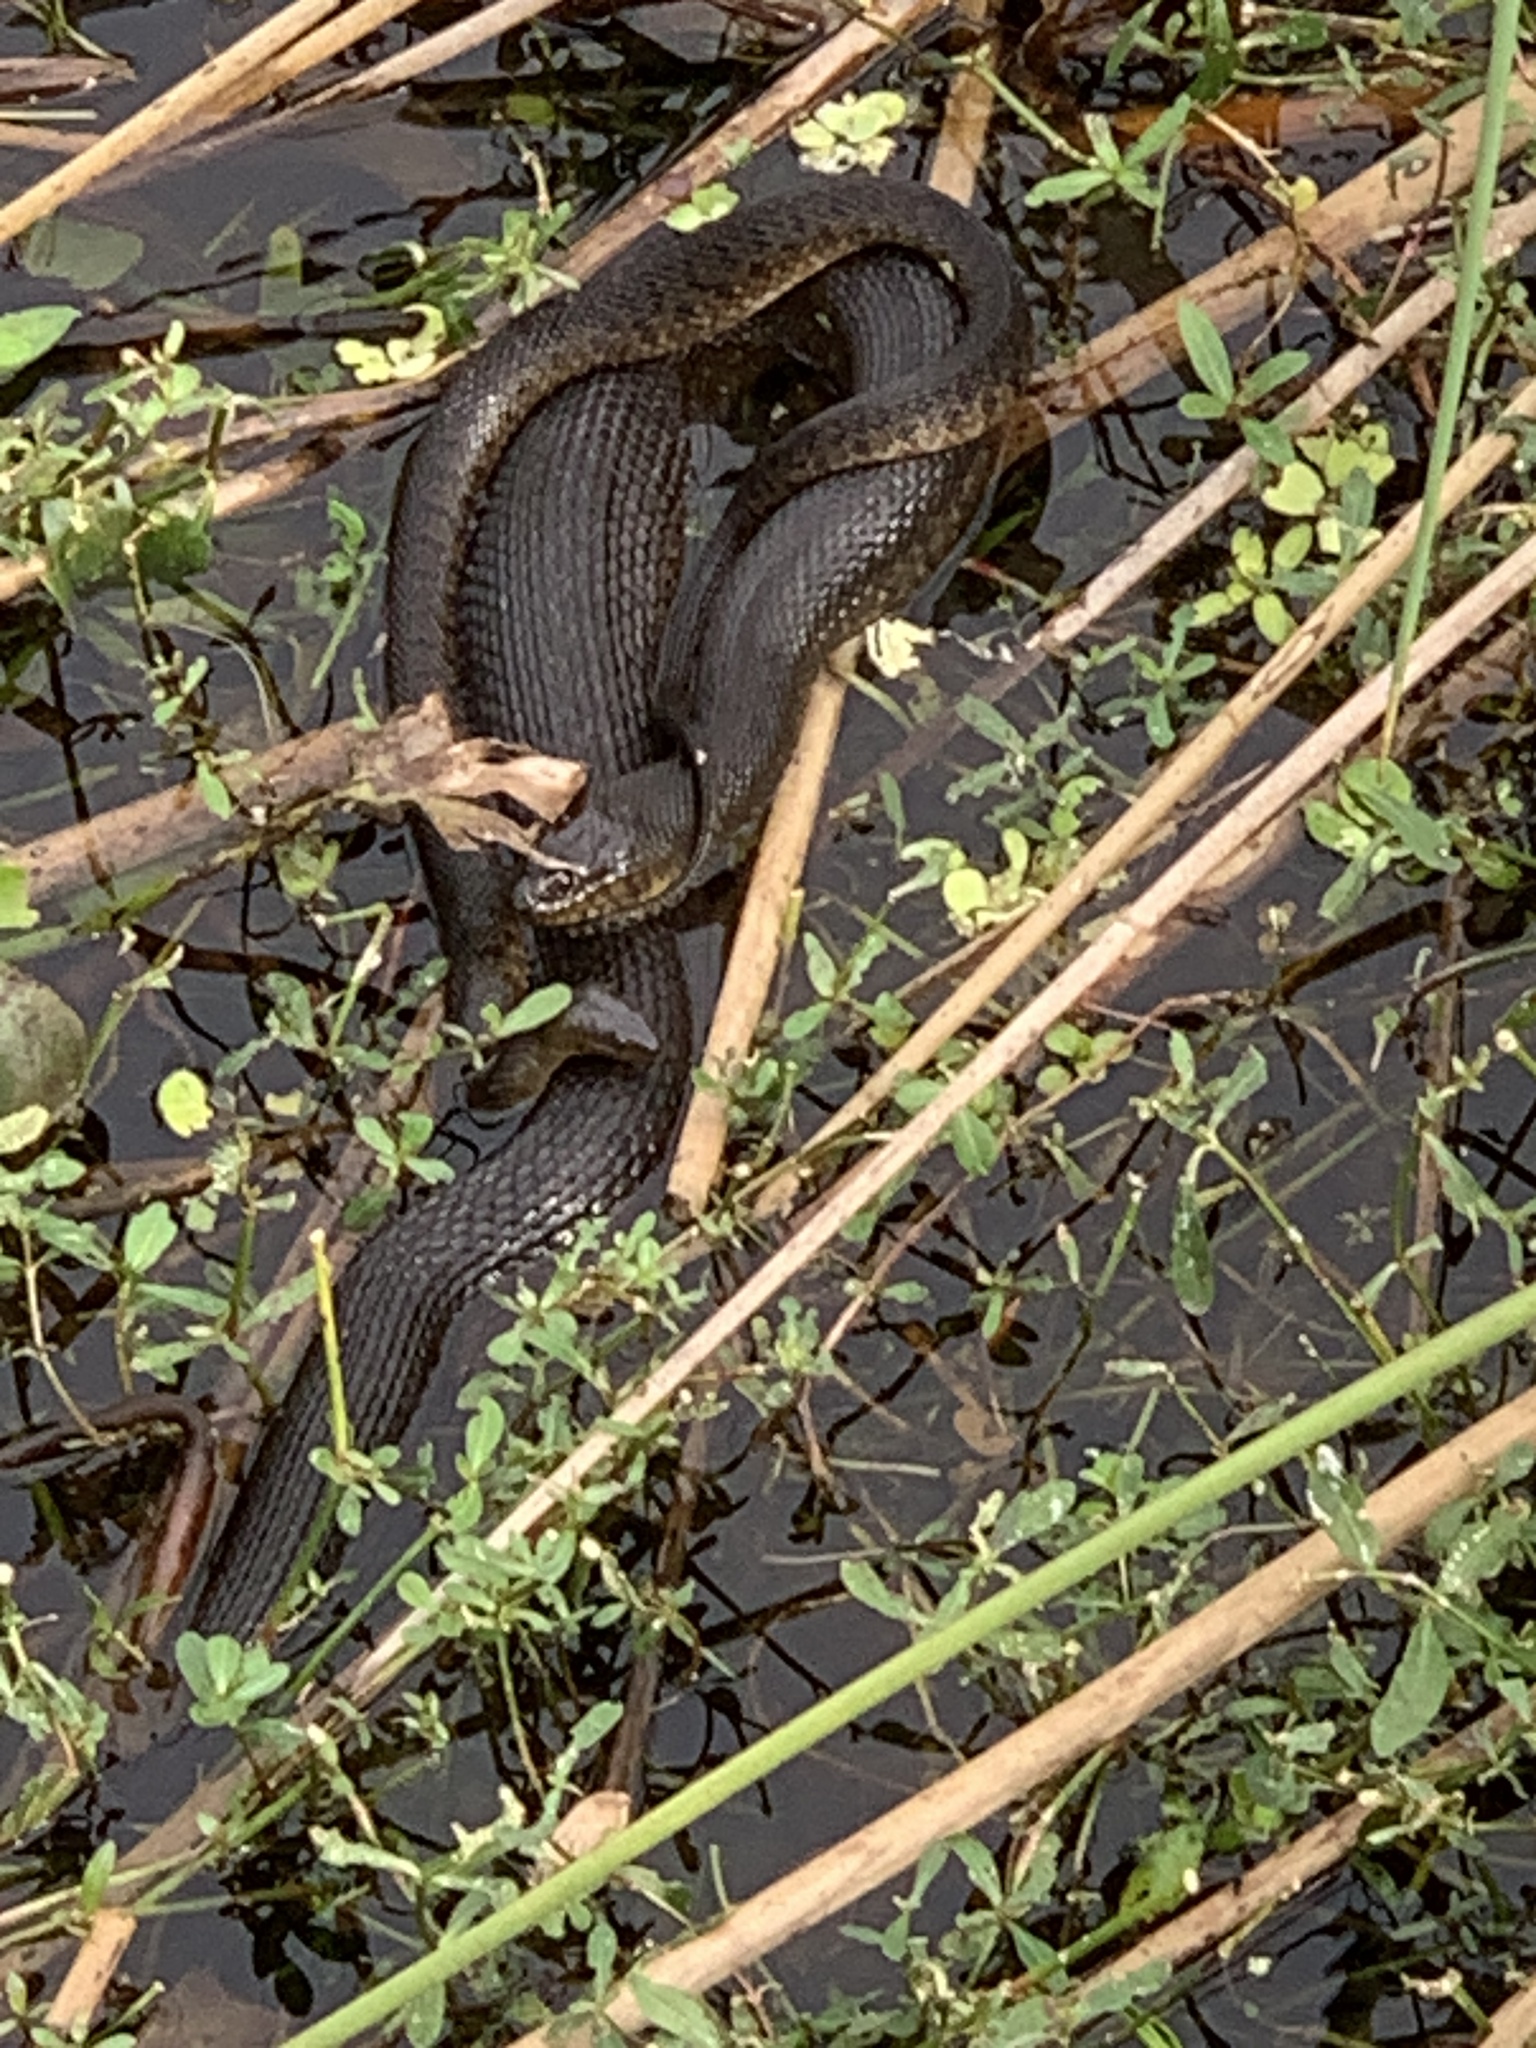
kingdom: Animalia
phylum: Chordata
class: Squamata
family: Colubridae
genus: Nerodia
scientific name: Nerodia floridana
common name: Florida green watersnake
